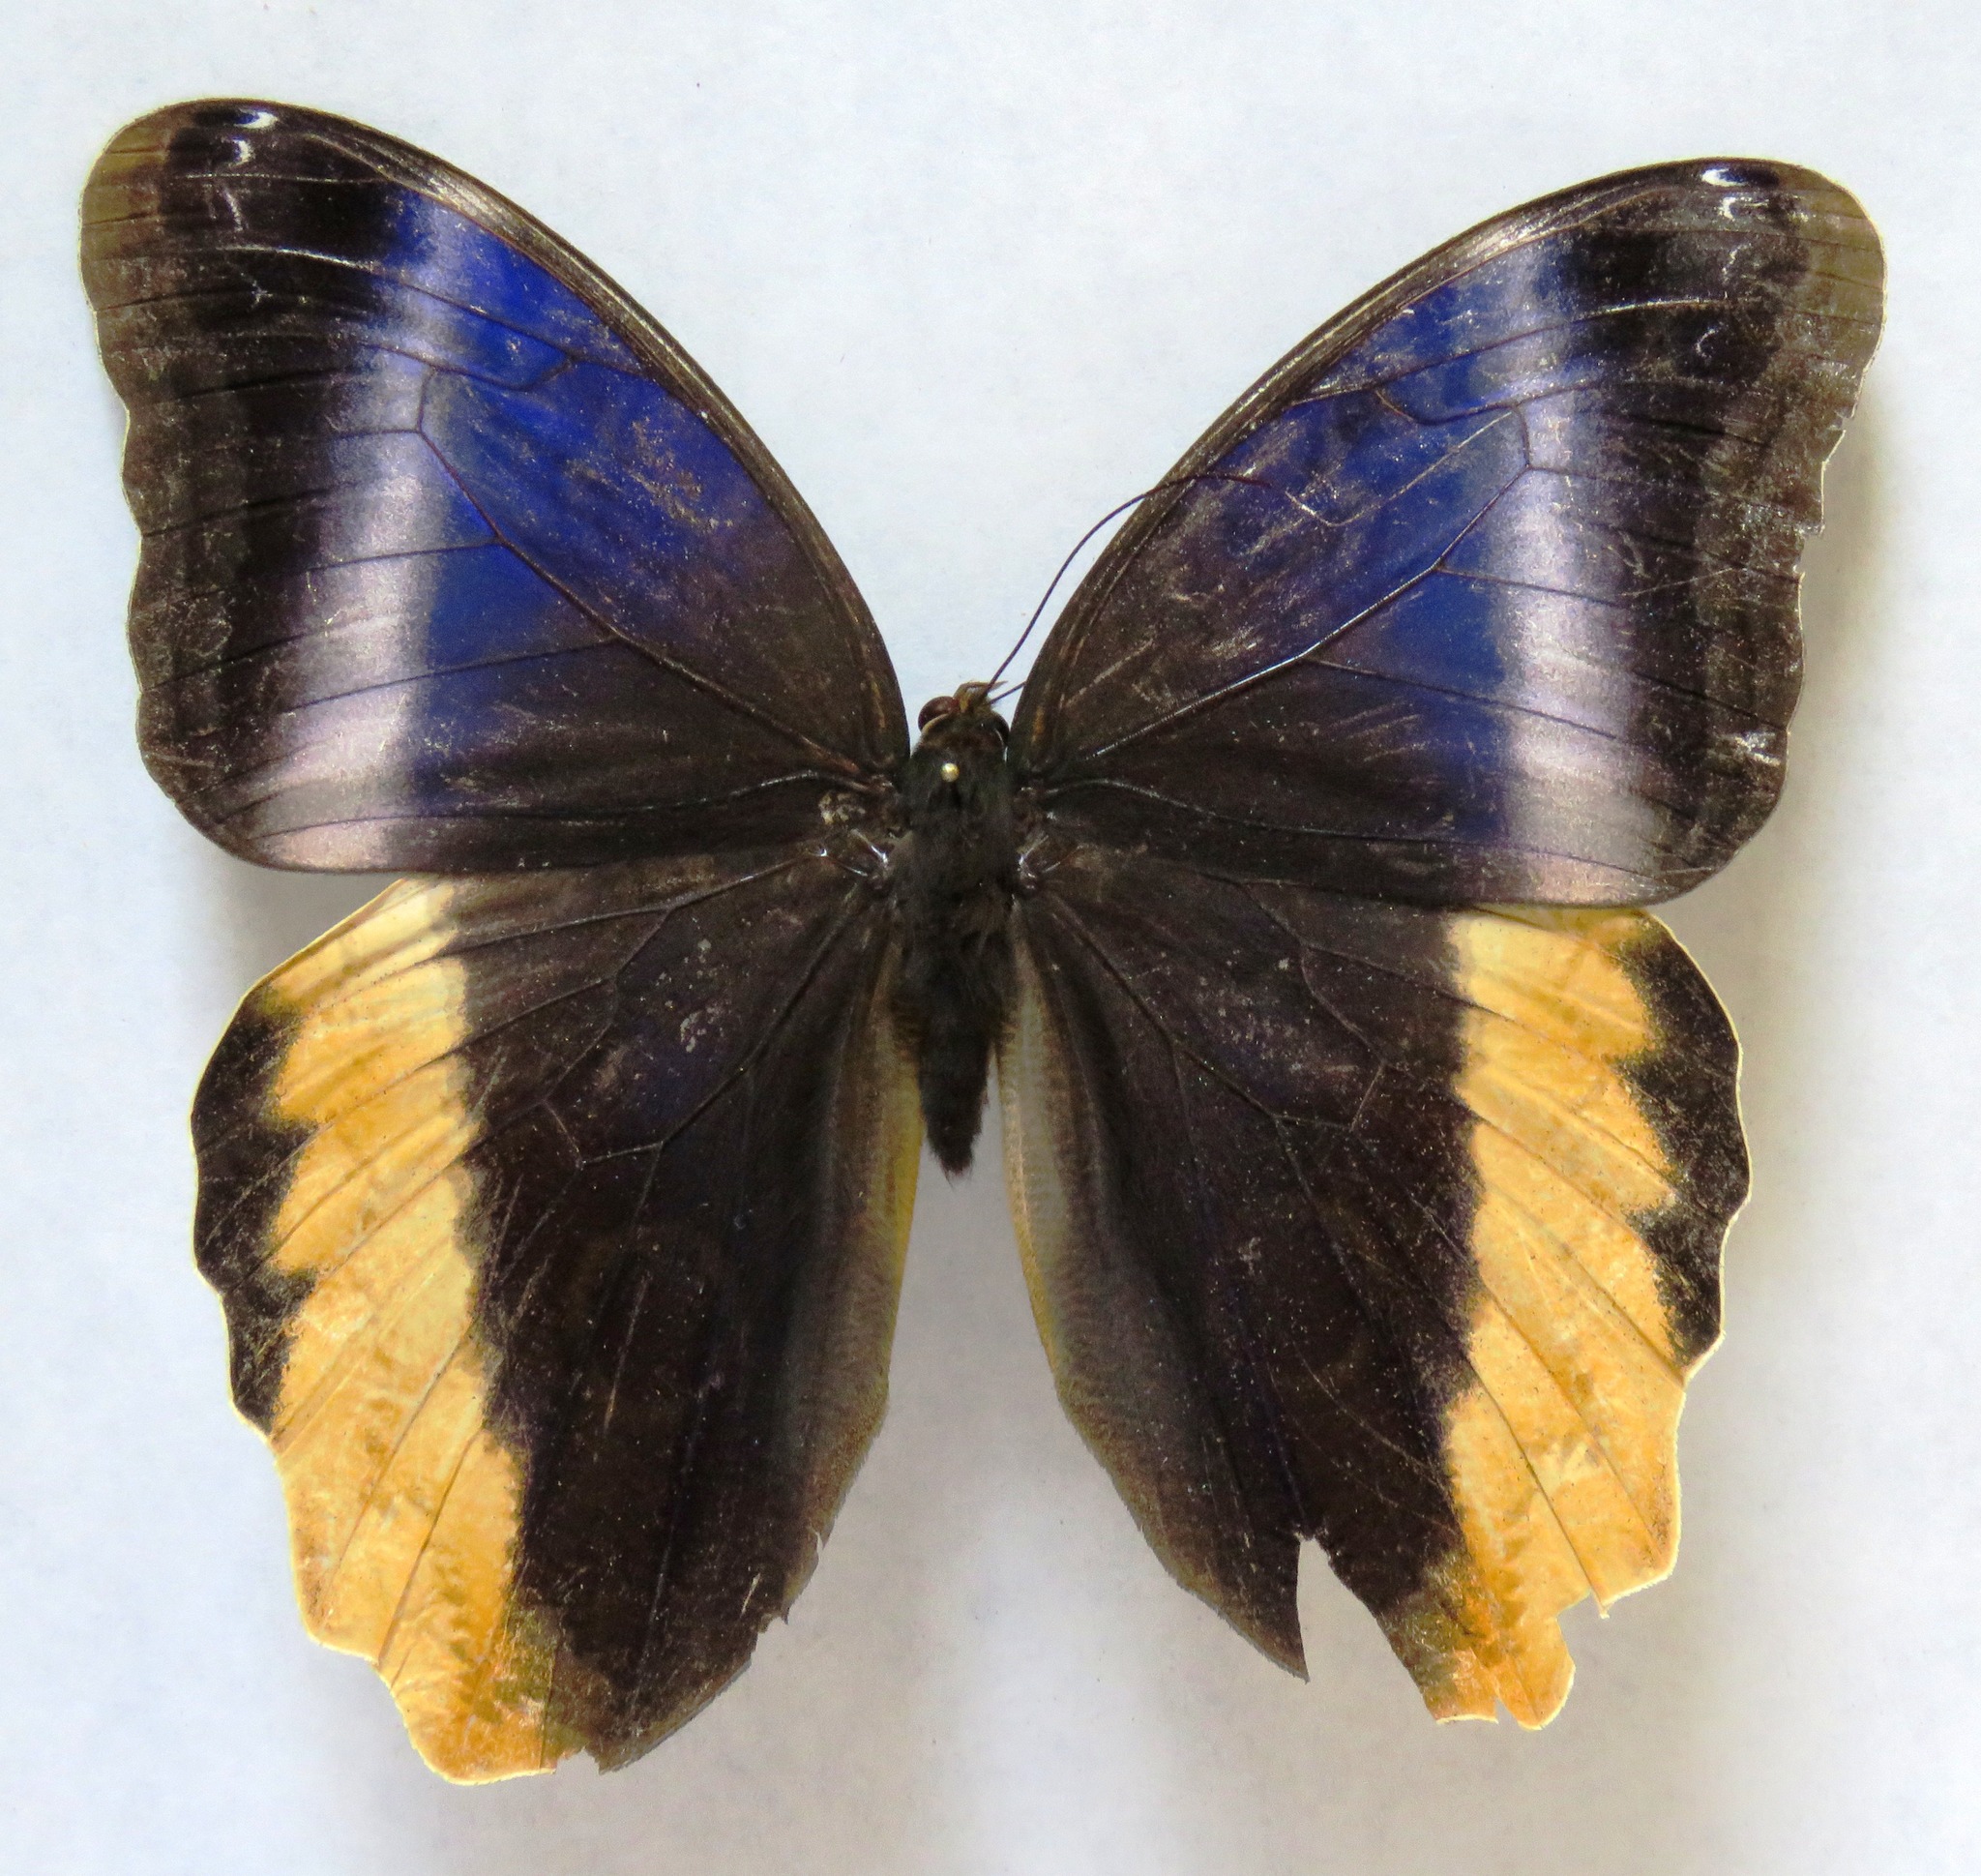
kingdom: Animalia
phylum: Arthropoda
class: Insecta
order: Lepidoptera
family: Nymphalidae
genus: Caligo
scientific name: Caligo atreus
